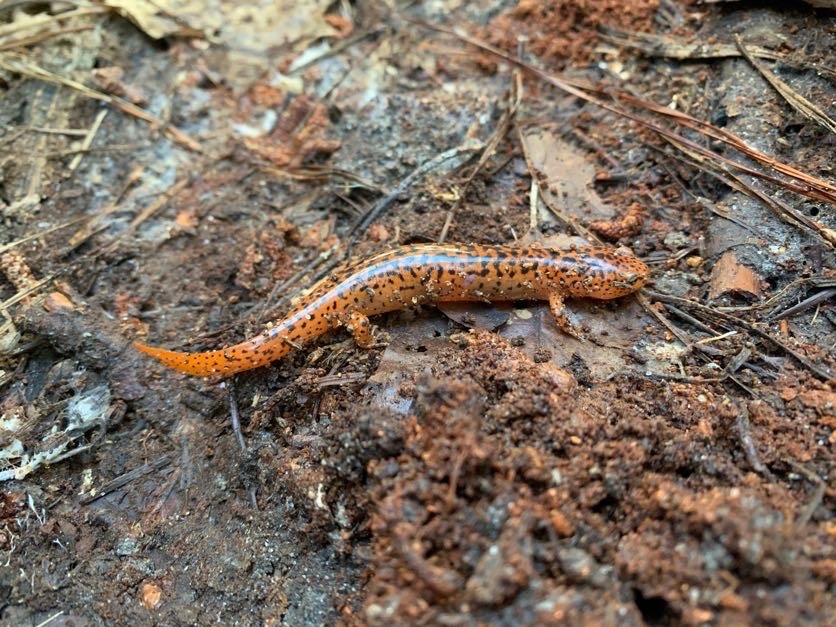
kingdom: Animalia
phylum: Chordata
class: Amphibia
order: Caudata
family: Plethodontidae
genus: Pseudotriton
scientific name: Pseudotriton ruber
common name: Red salamander
